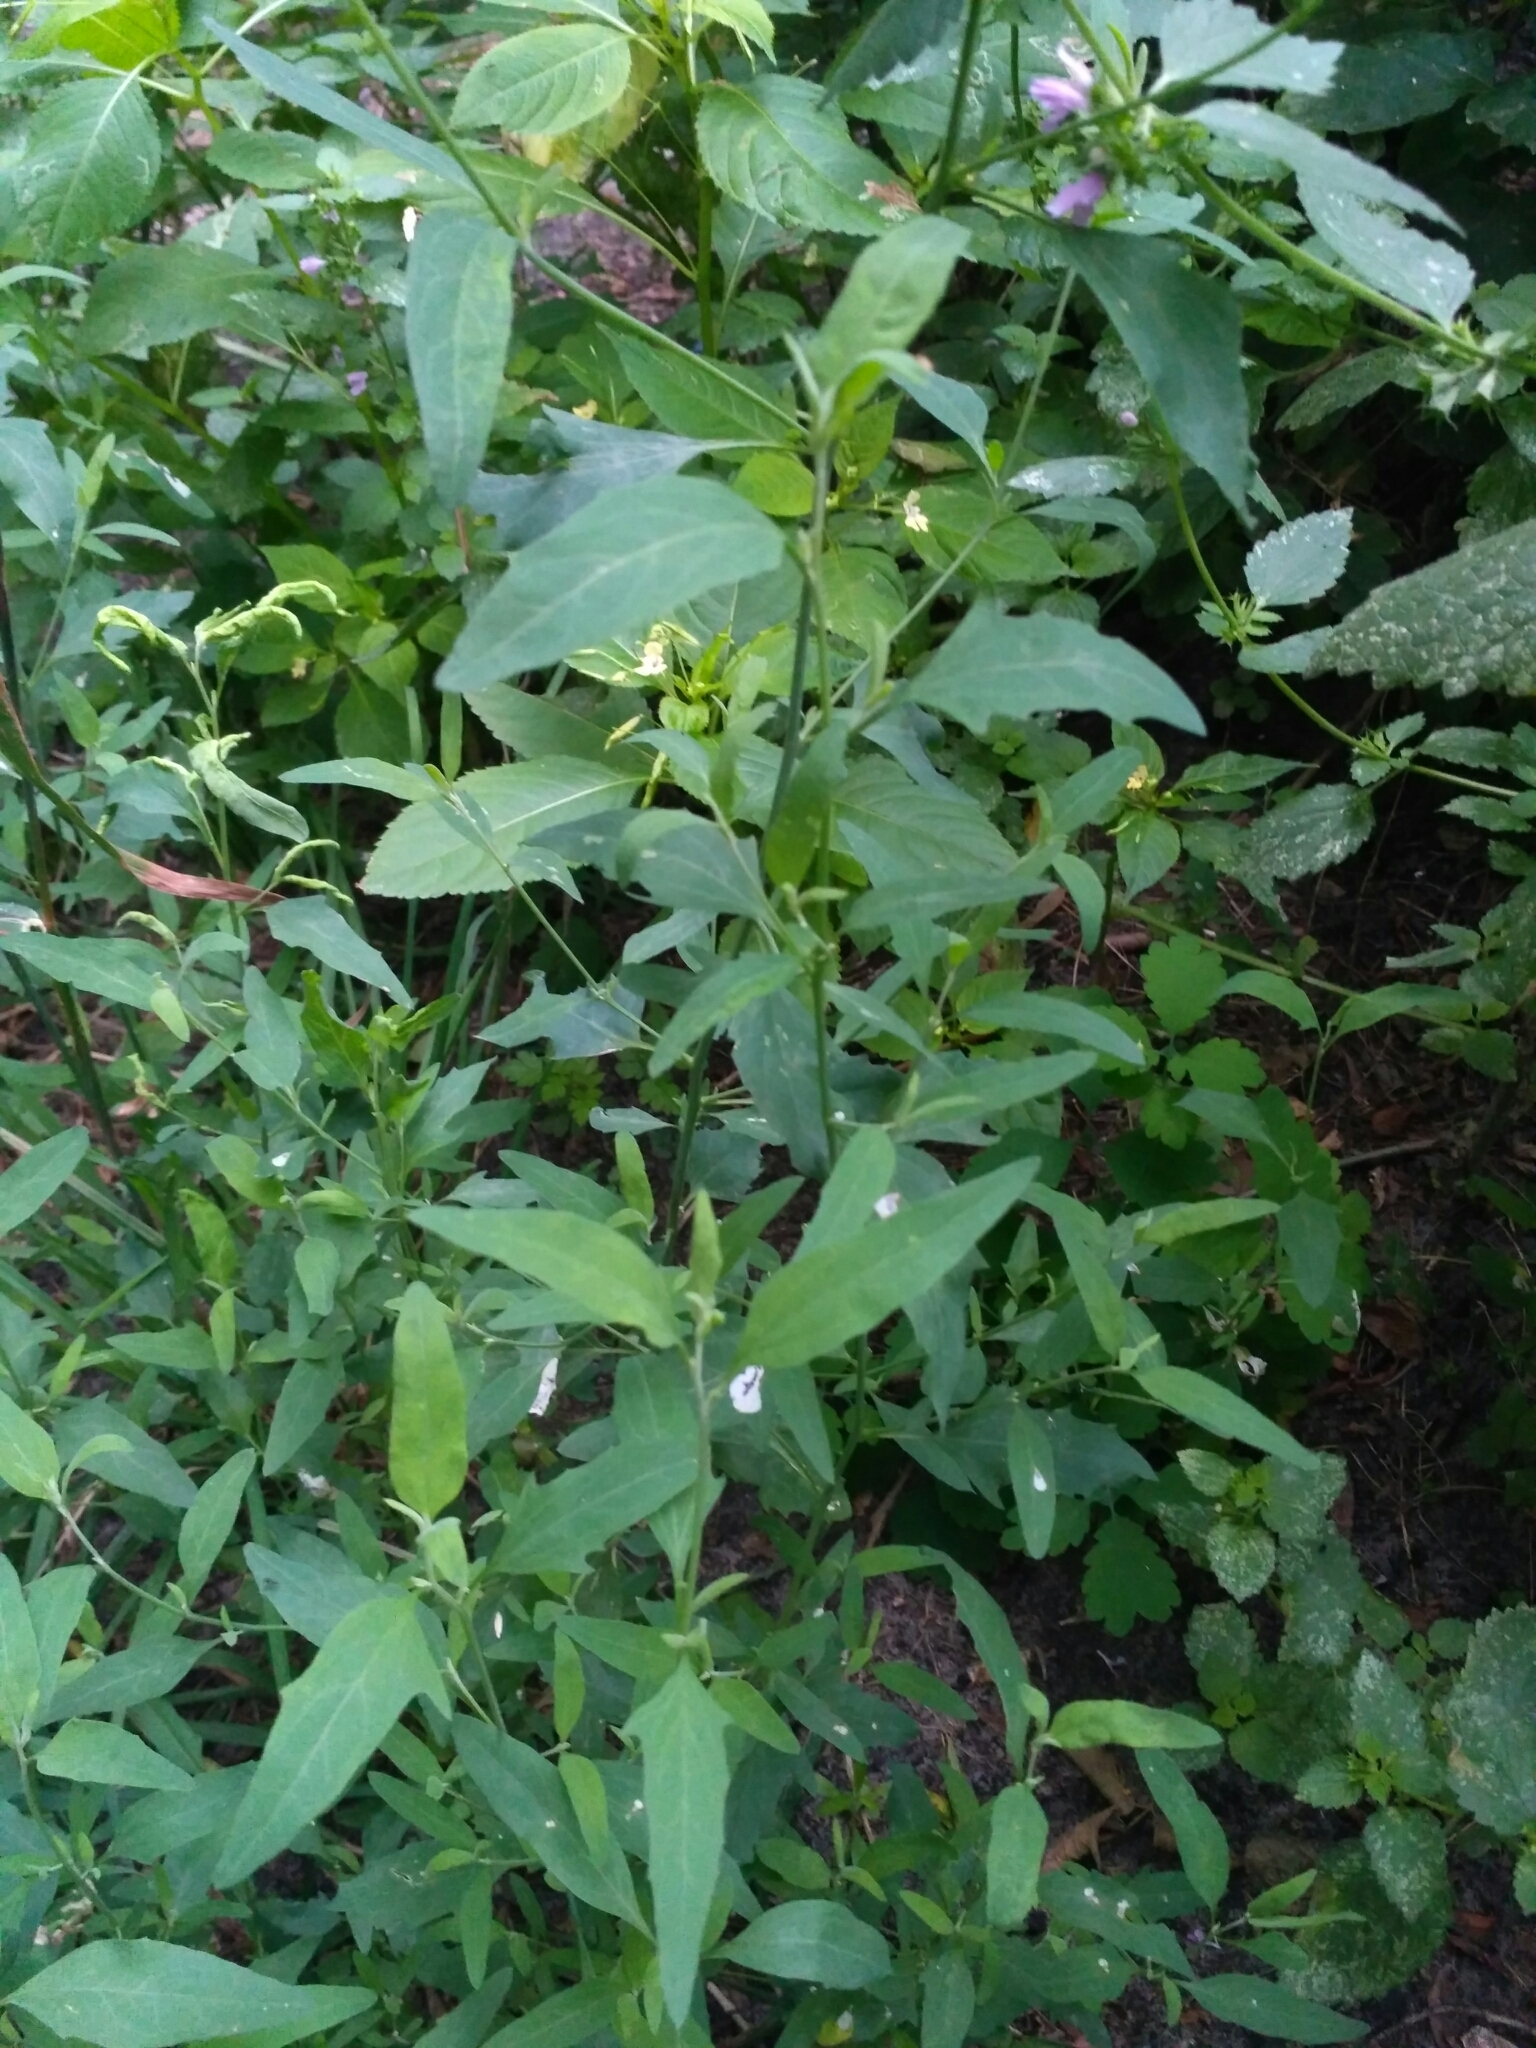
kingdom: Plantae
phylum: Tracheophyta
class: Magnoliopsida
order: Caryophyllales
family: Amaranthaceae
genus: Atriplex
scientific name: Atriplex patula
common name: Common orache
